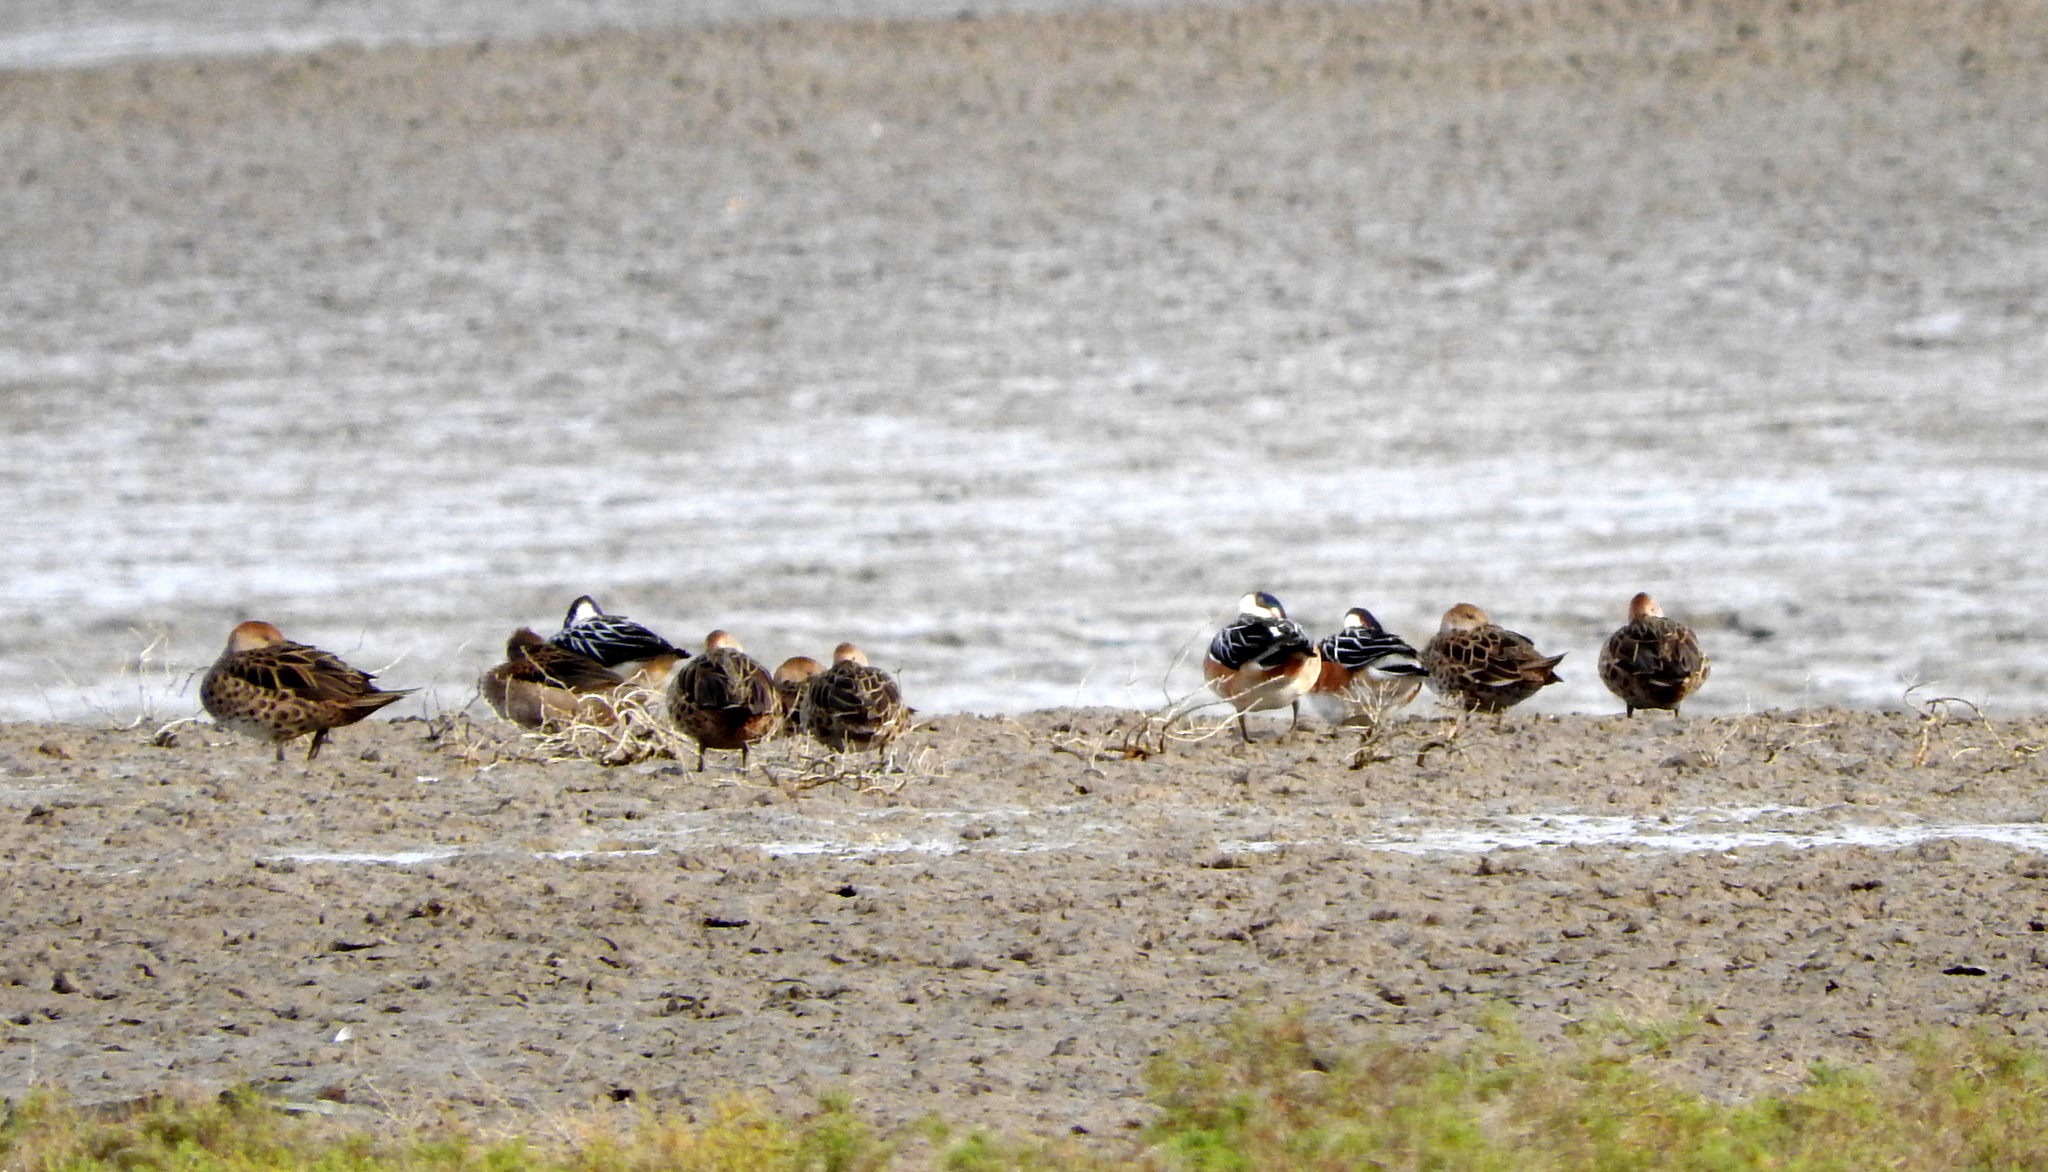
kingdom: Animalia
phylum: Chordata
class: Aves
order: Anseriformes
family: Anatidae
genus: Mareca
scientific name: Mareca sibilatrix
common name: Chiloe wigeon
